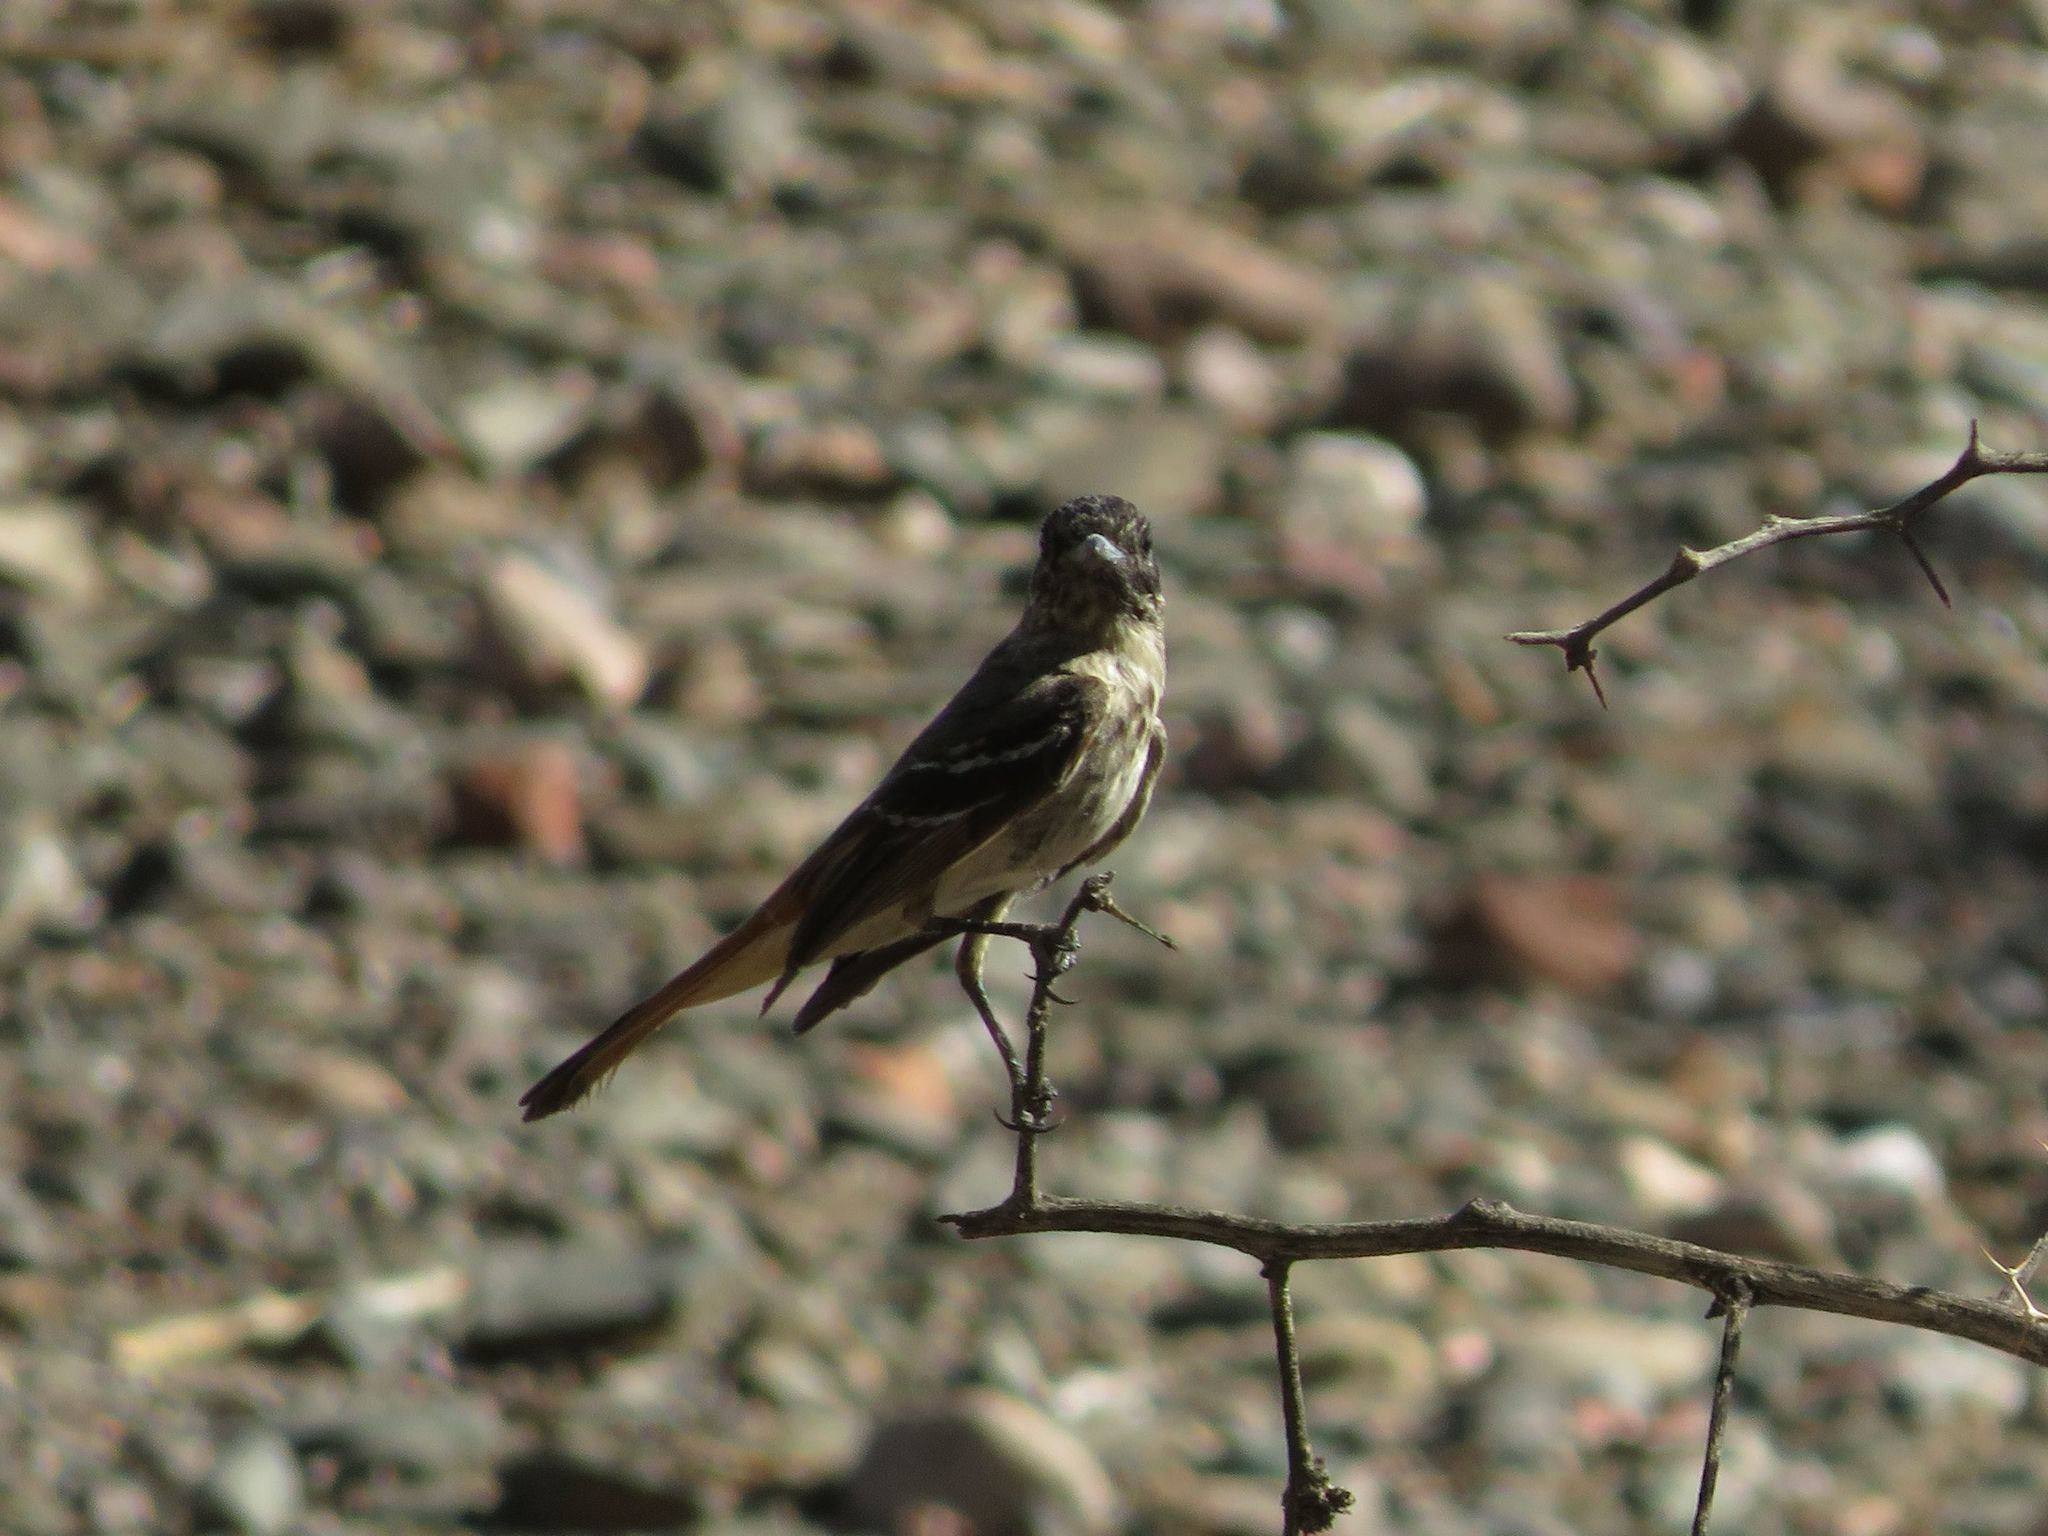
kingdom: Animalia
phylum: Chordata
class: Aves
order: Passeriformes
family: Tyrannidae
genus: Knipolegus
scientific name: Knipolegus aterrimus
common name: White-winged black tyrant
